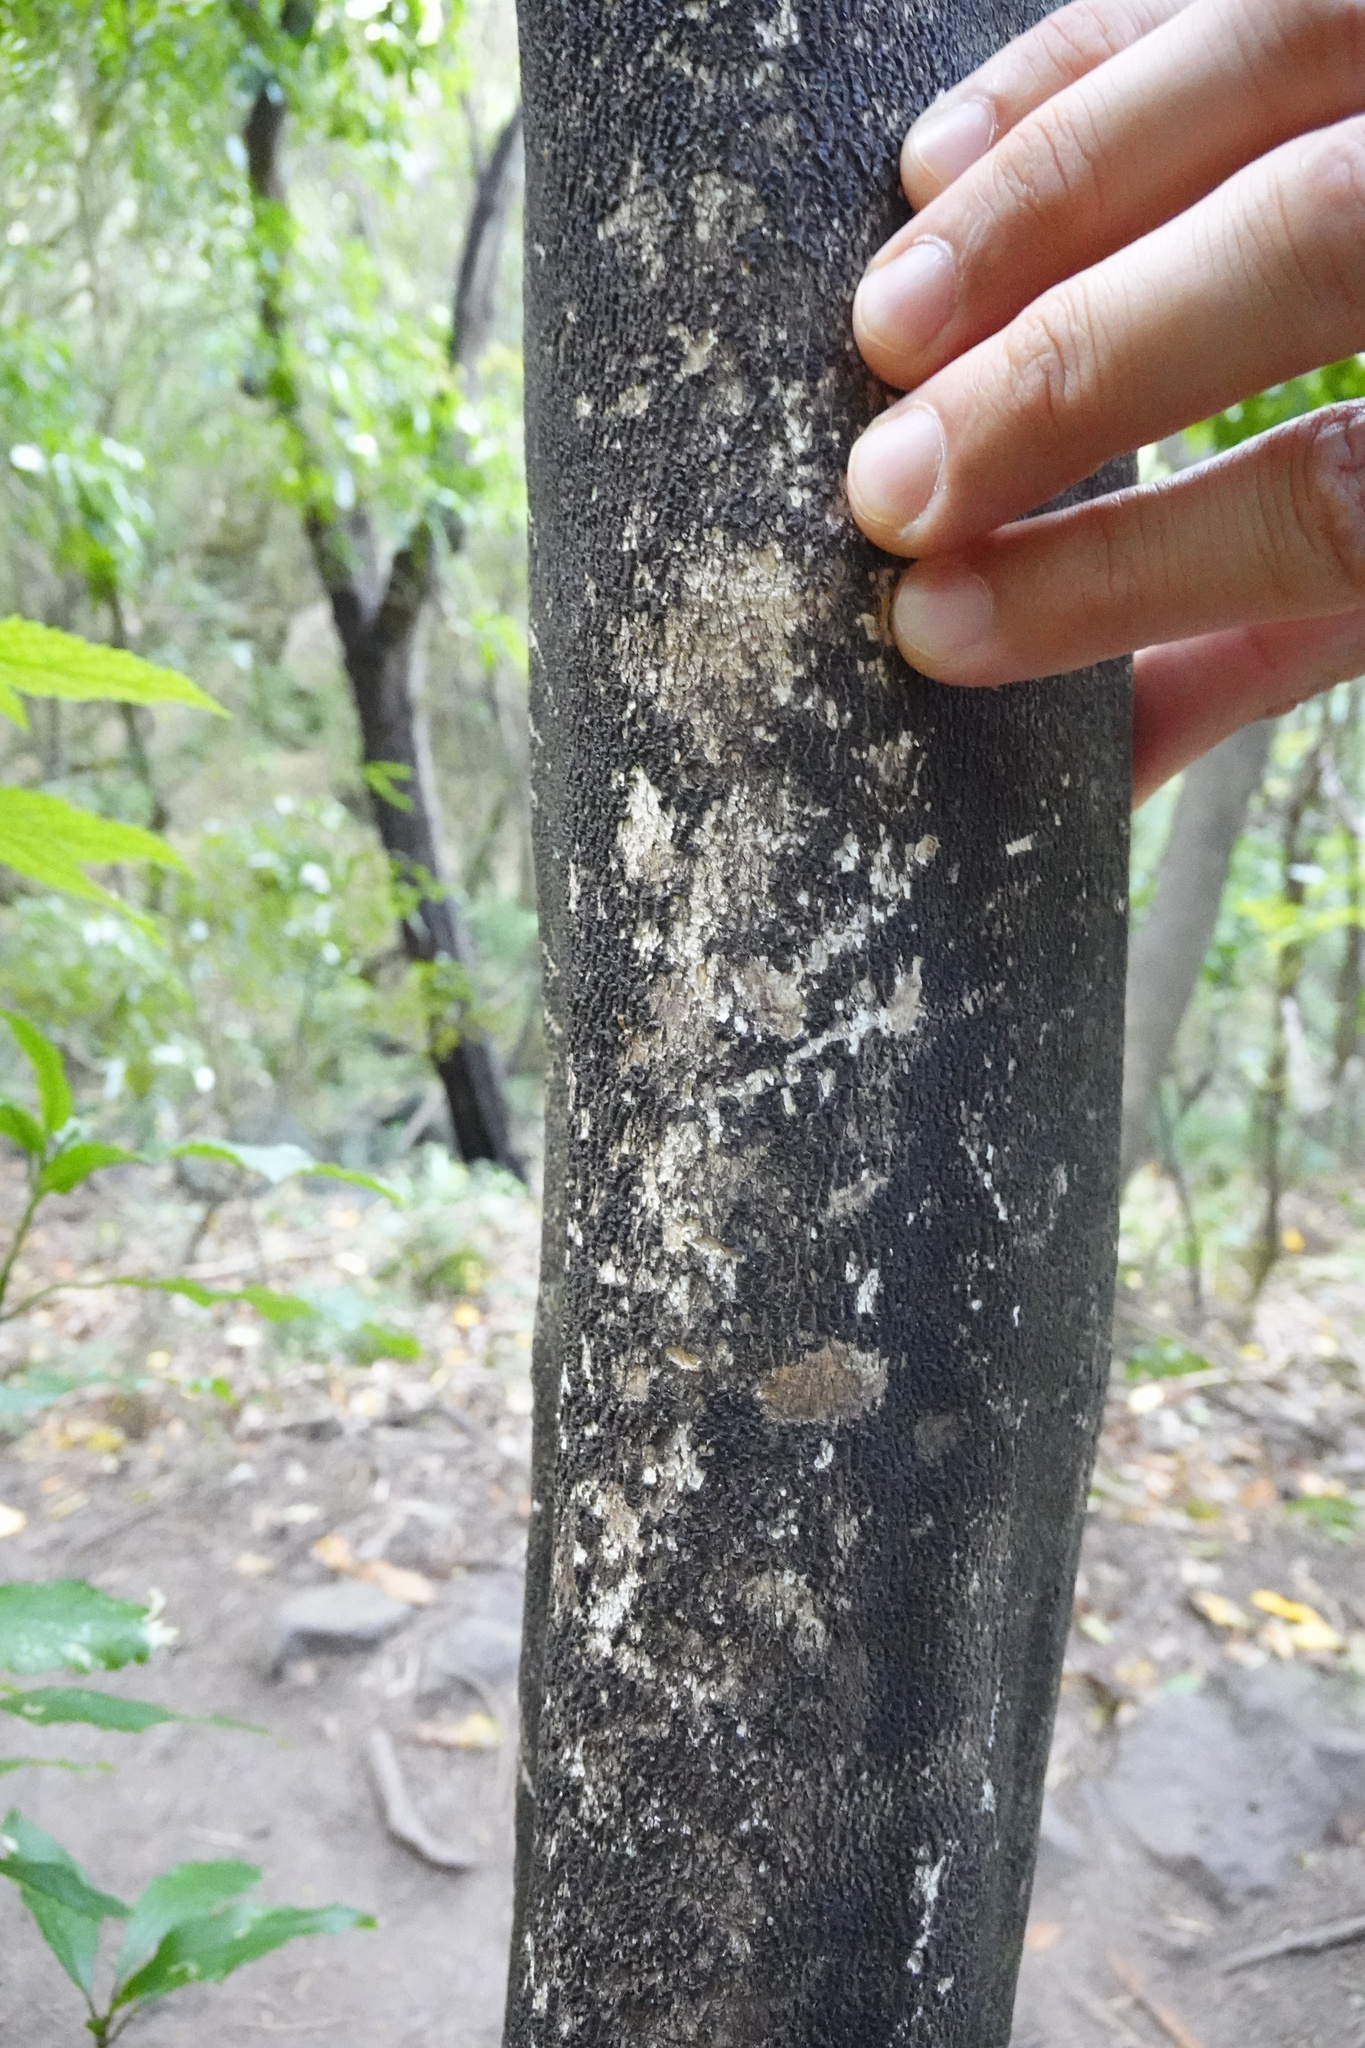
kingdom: Animalia
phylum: Chordata
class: Mammalia
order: Diprotodontia
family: Phalangeridae
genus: Trichosurus
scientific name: Trichosurus vulpecula
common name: Common brushtail
